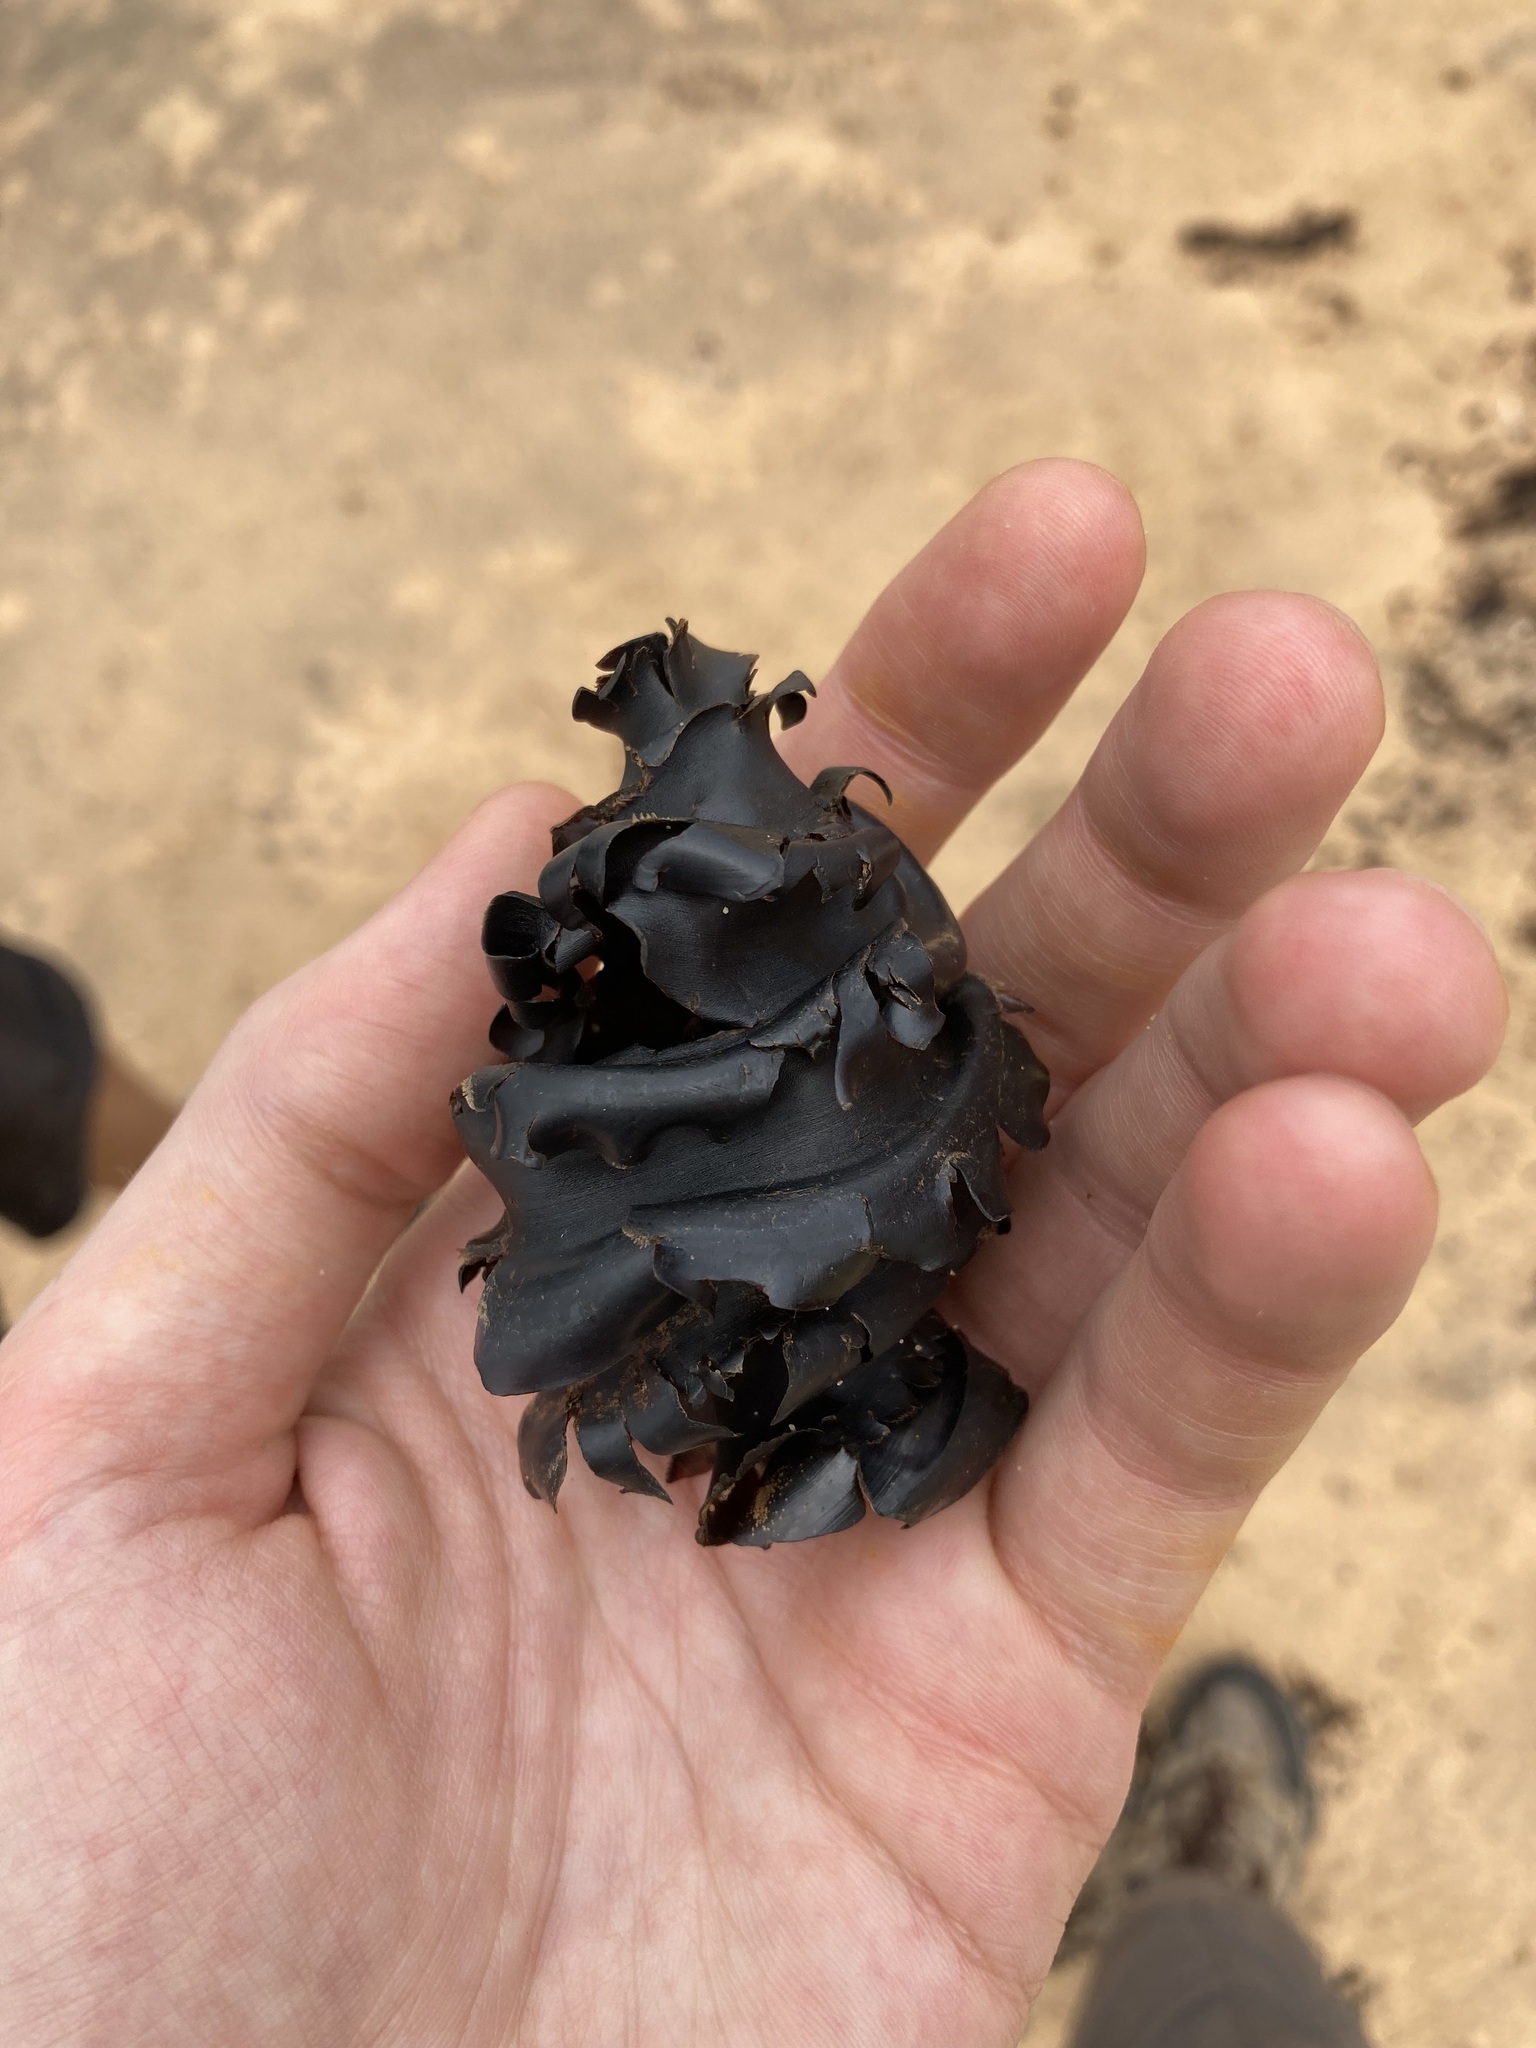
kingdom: Animalia
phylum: Chordata
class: Elasmobranchii
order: Heterodontiformes
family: Heterodontidae
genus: Heterodontus
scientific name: Heterodontus galeatus
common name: Crested bullhead shark
